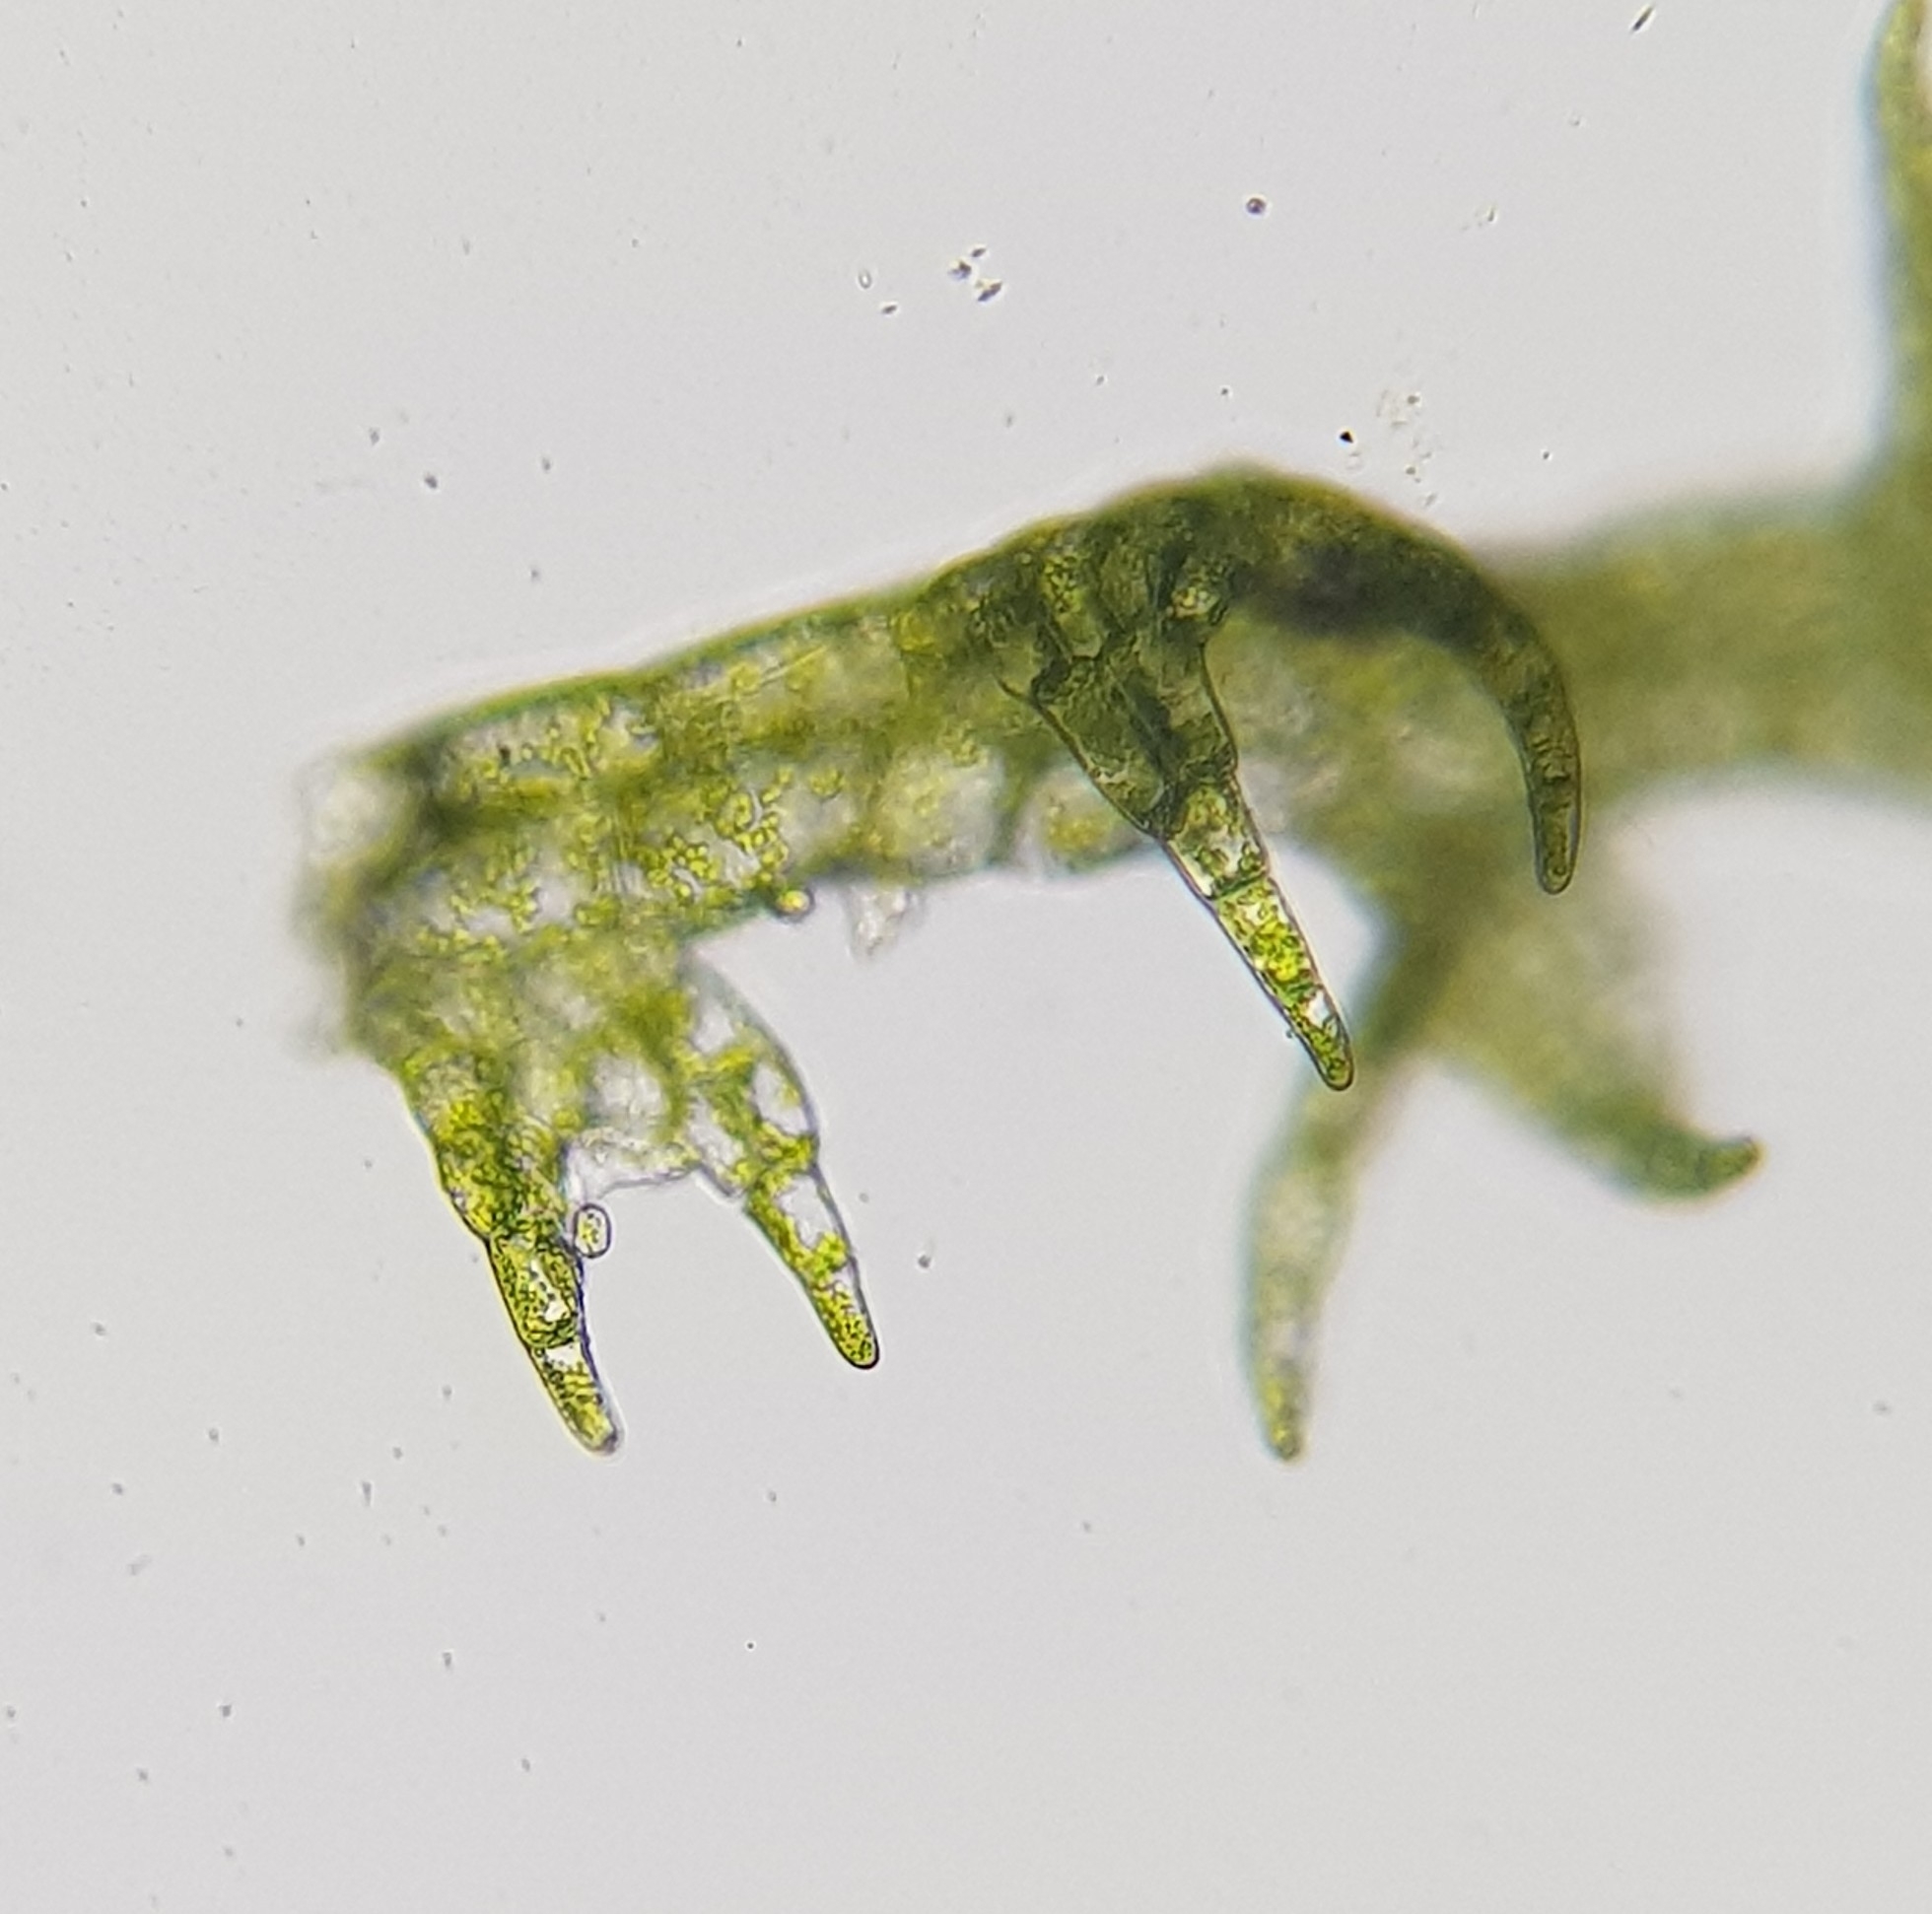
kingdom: Plantae
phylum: Marchantiophyta
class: Jungermanniopsida
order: Jungermanniales
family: Cephaloziaceae
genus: Cephalozia
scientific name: Cephalozia bicuspidata
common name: Two-horned pincerwort
